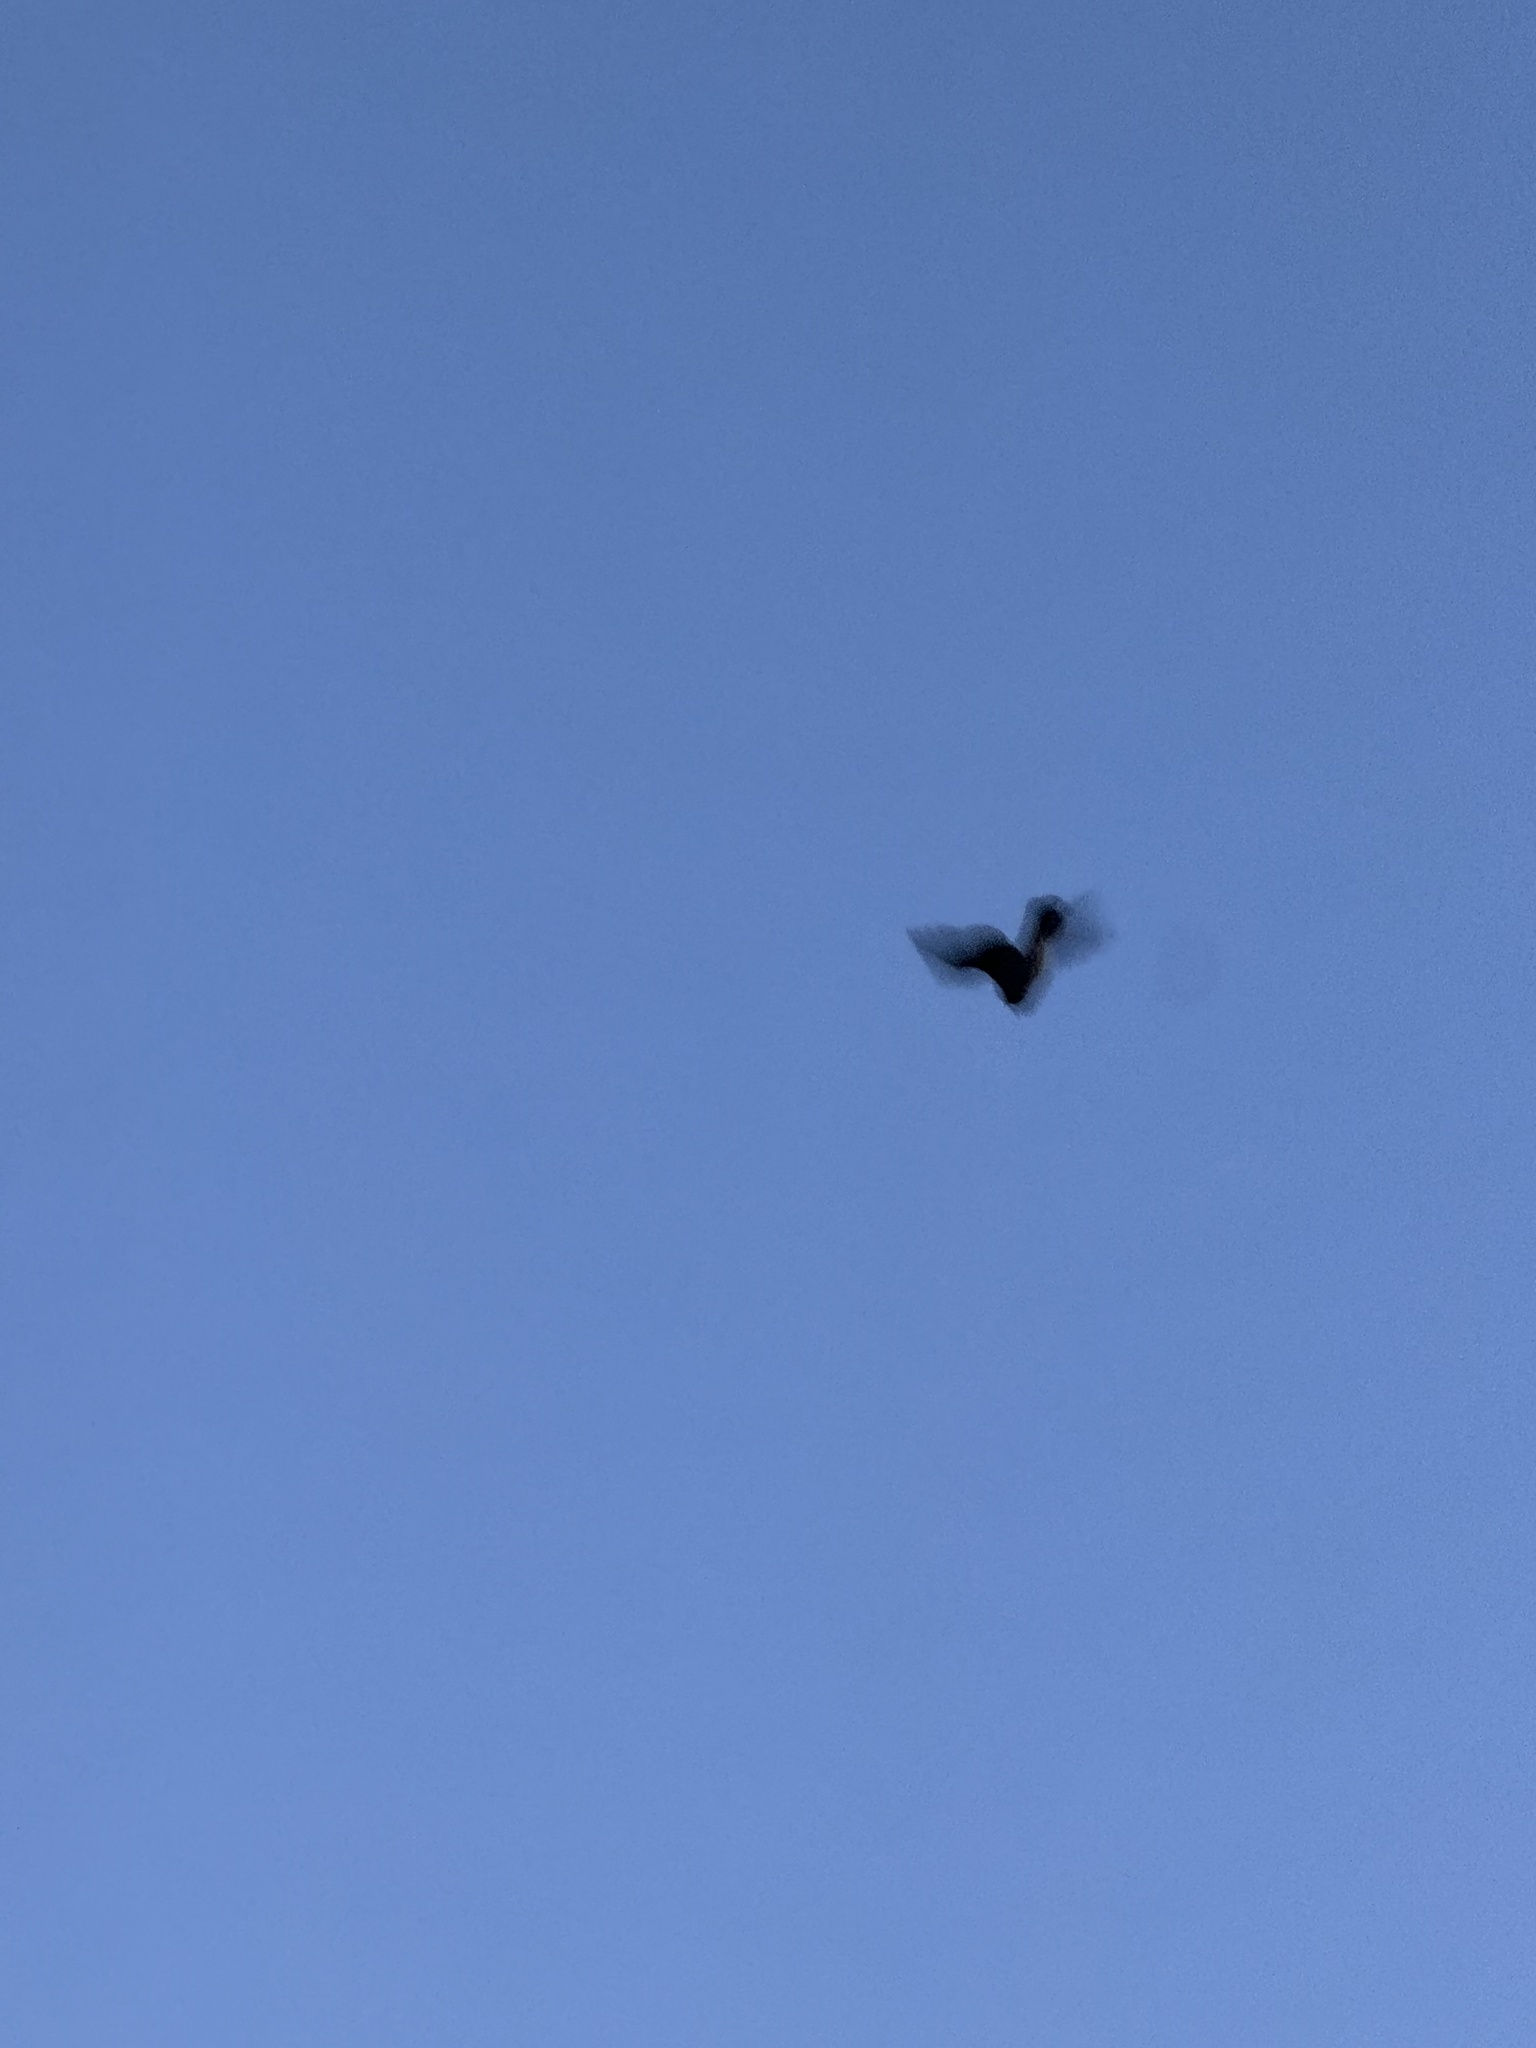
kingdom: Animalia
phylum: Chordata
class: Aves
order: Caprimulgiformes
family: Caprimulgidae
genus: Chordeiles
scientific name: Chordeiles acutipennis
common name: Lesser nighthawk
